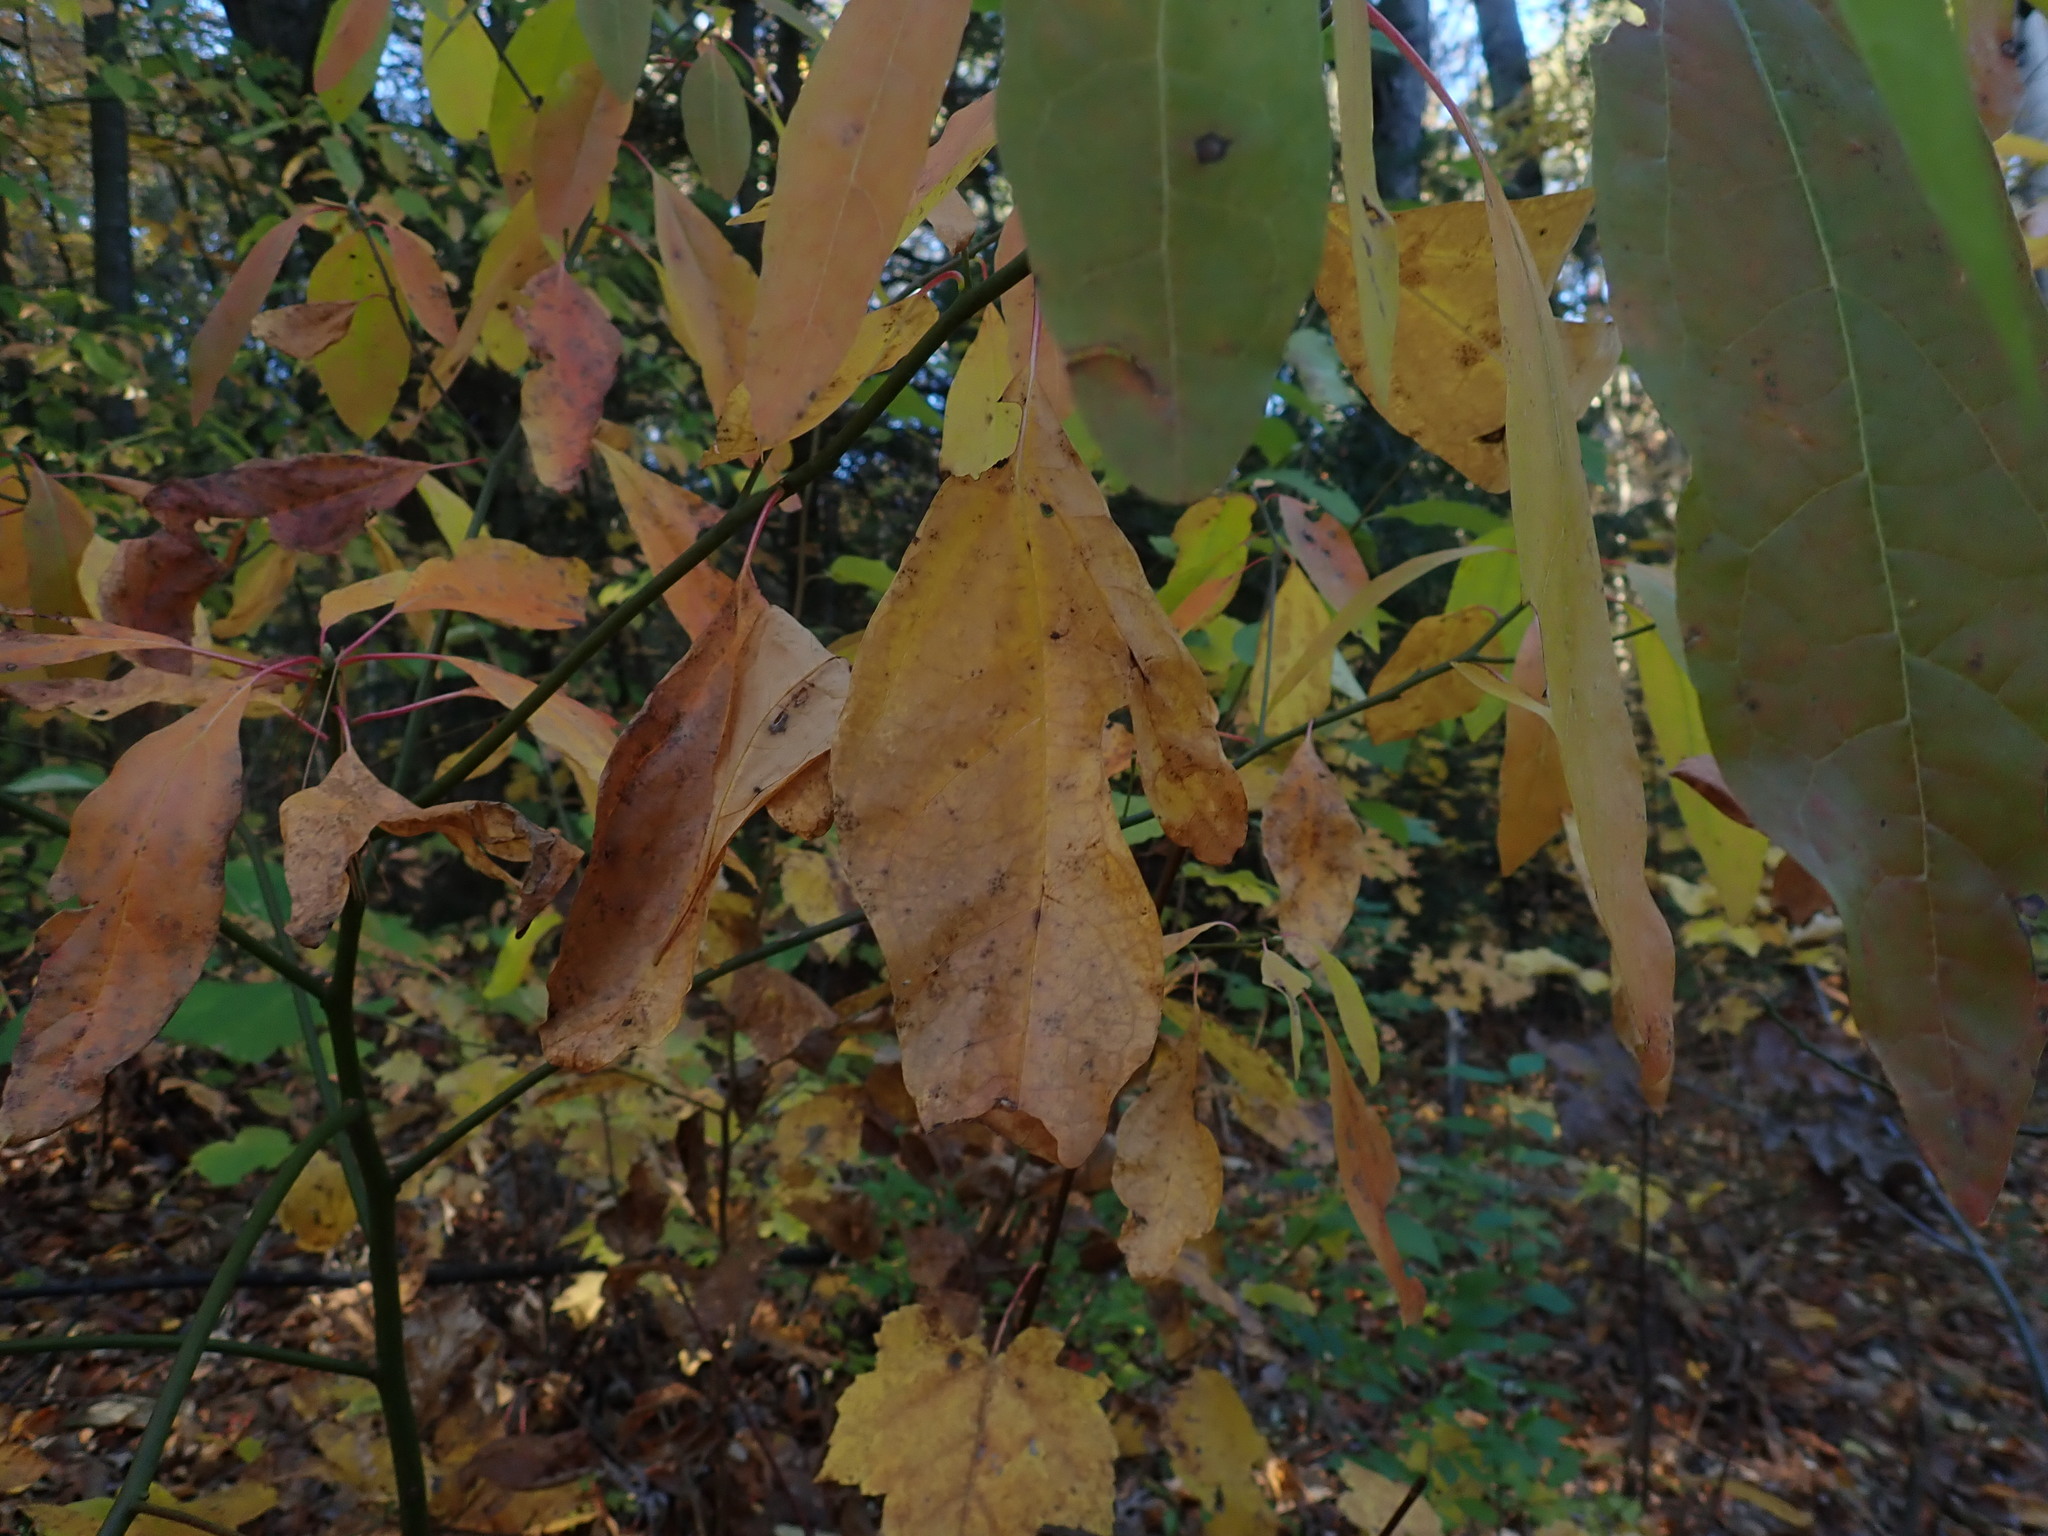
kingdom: Plantae
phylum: Tracheophyta
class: Magnoliopsida
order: Laurales
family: Lauraceae
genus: Sassafras
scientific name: Sassafras albidum
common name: Sassafras
